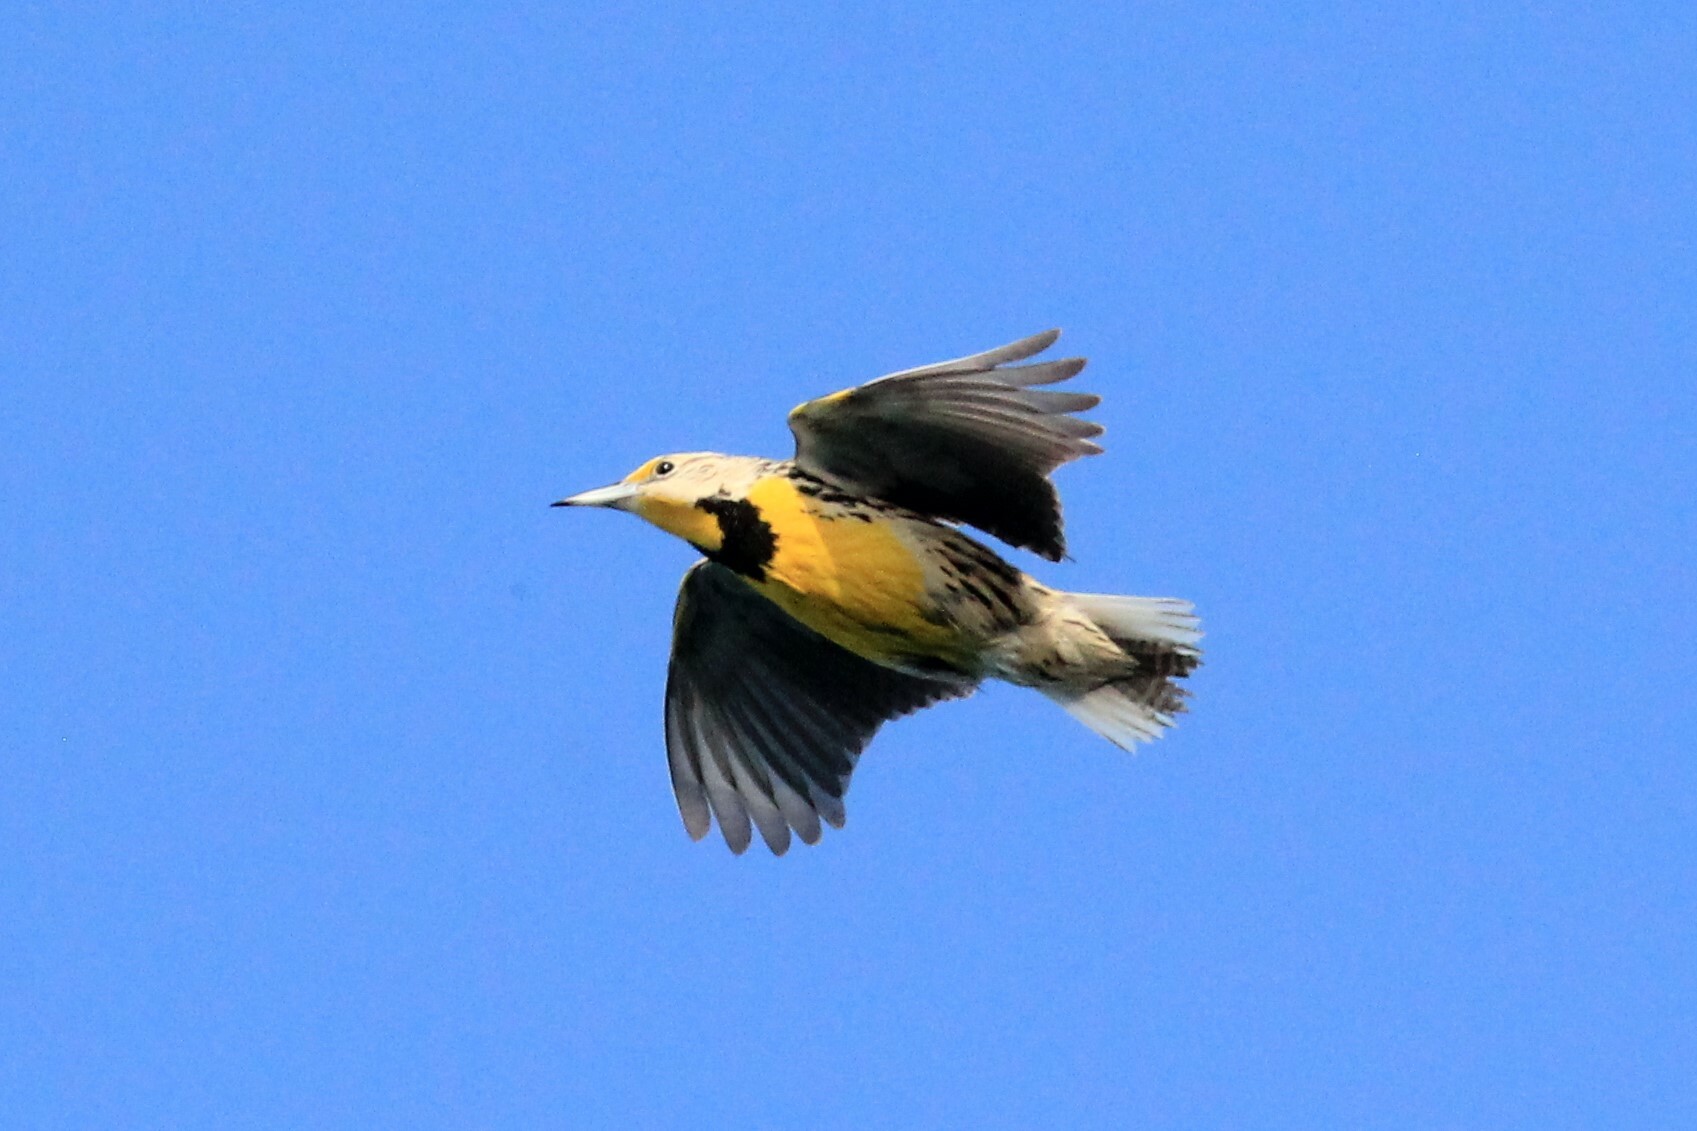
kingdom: Animalia
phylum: Chordata
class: Aves
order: Passeriformes
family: Icteridae
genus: Sturnella
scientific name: Sturnella magna
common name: Eastern meadowlark
